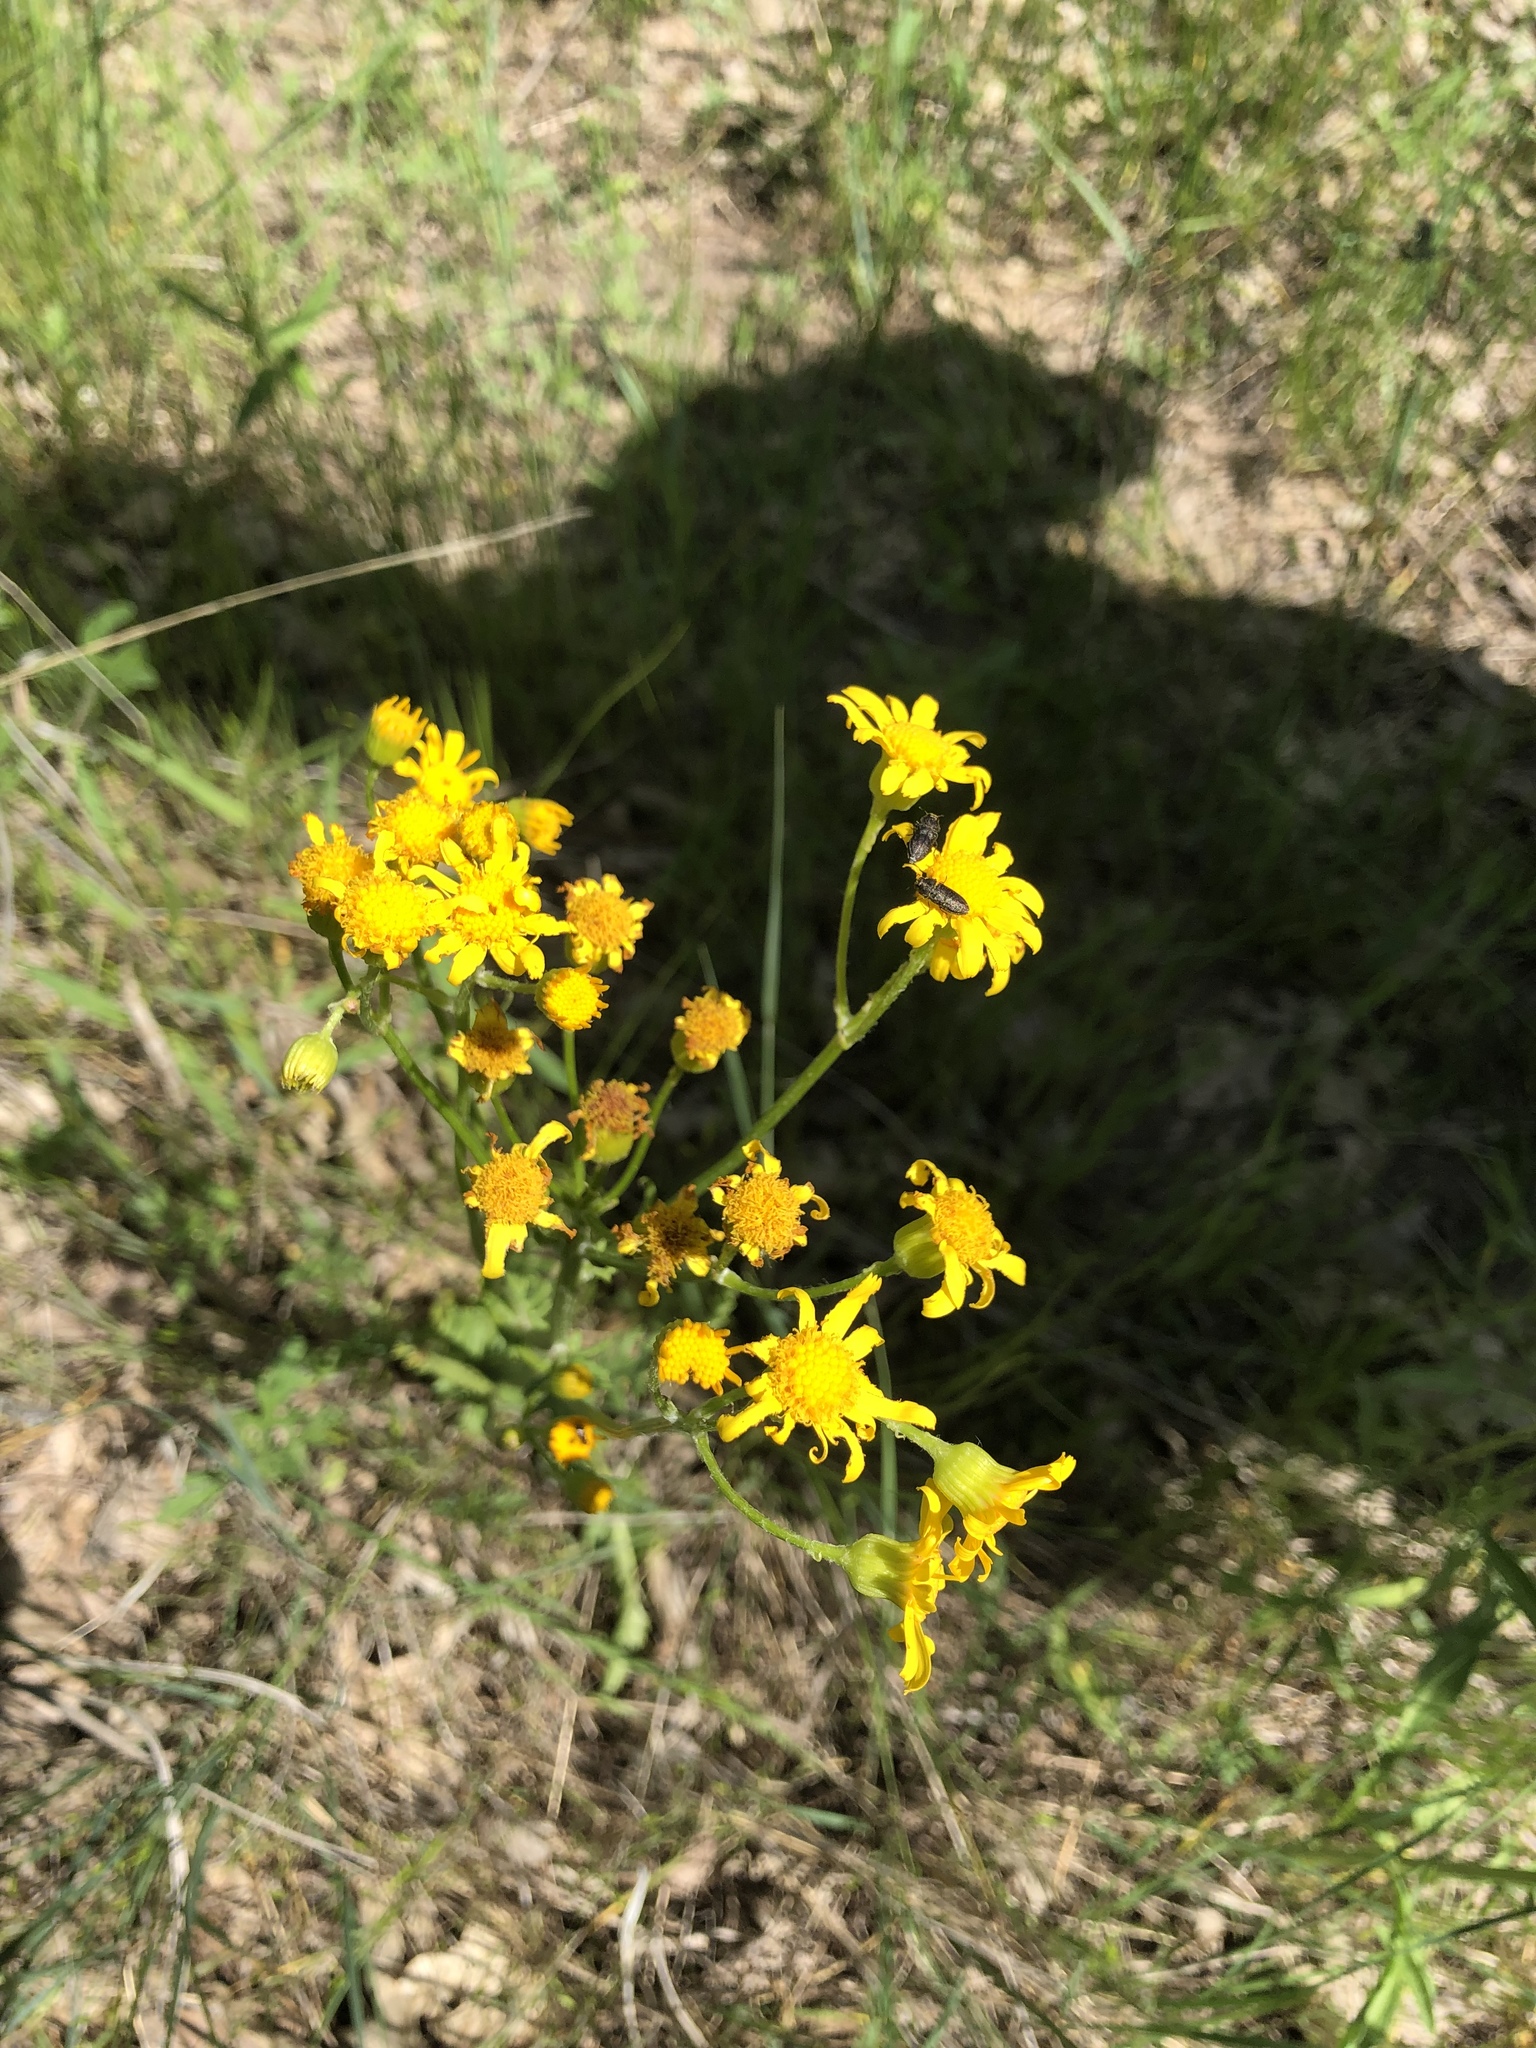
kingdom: Plantae
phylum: Tracheophyta
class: Magnoliopsida
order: Asterales
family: Asteraceae
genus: Packera
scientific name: Packera plattensis
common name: Prairie groundsel
